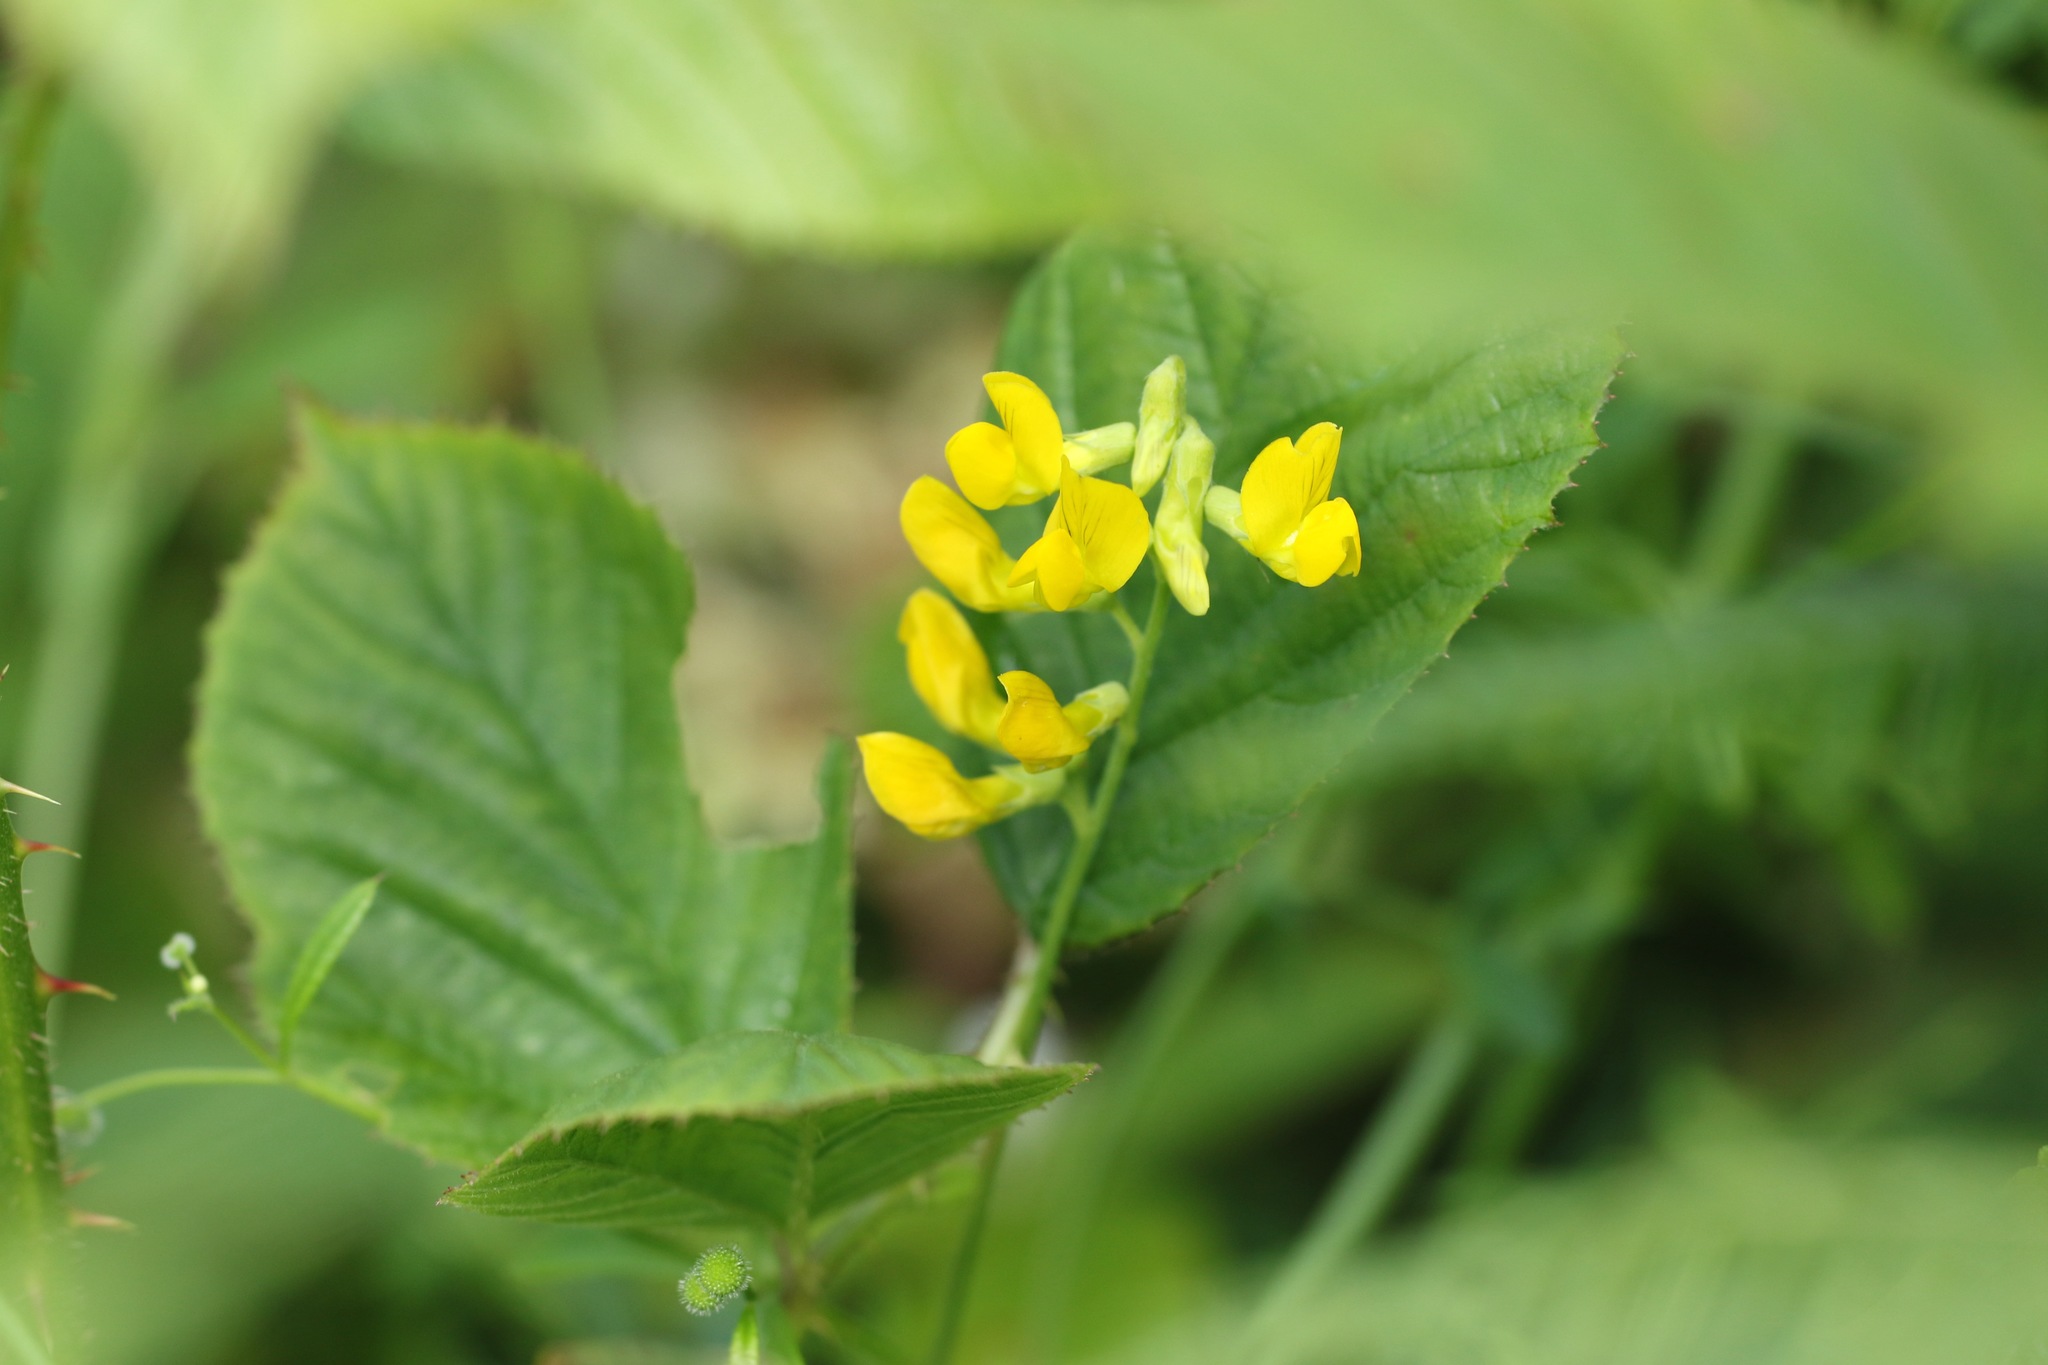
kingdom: Plantae
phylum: Tracheophyta
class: Magnoliopsida
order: Fabales
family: Fabaceae
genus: Lathyrus
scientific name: Lathyrus pratensis
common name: Meadow vetchling
